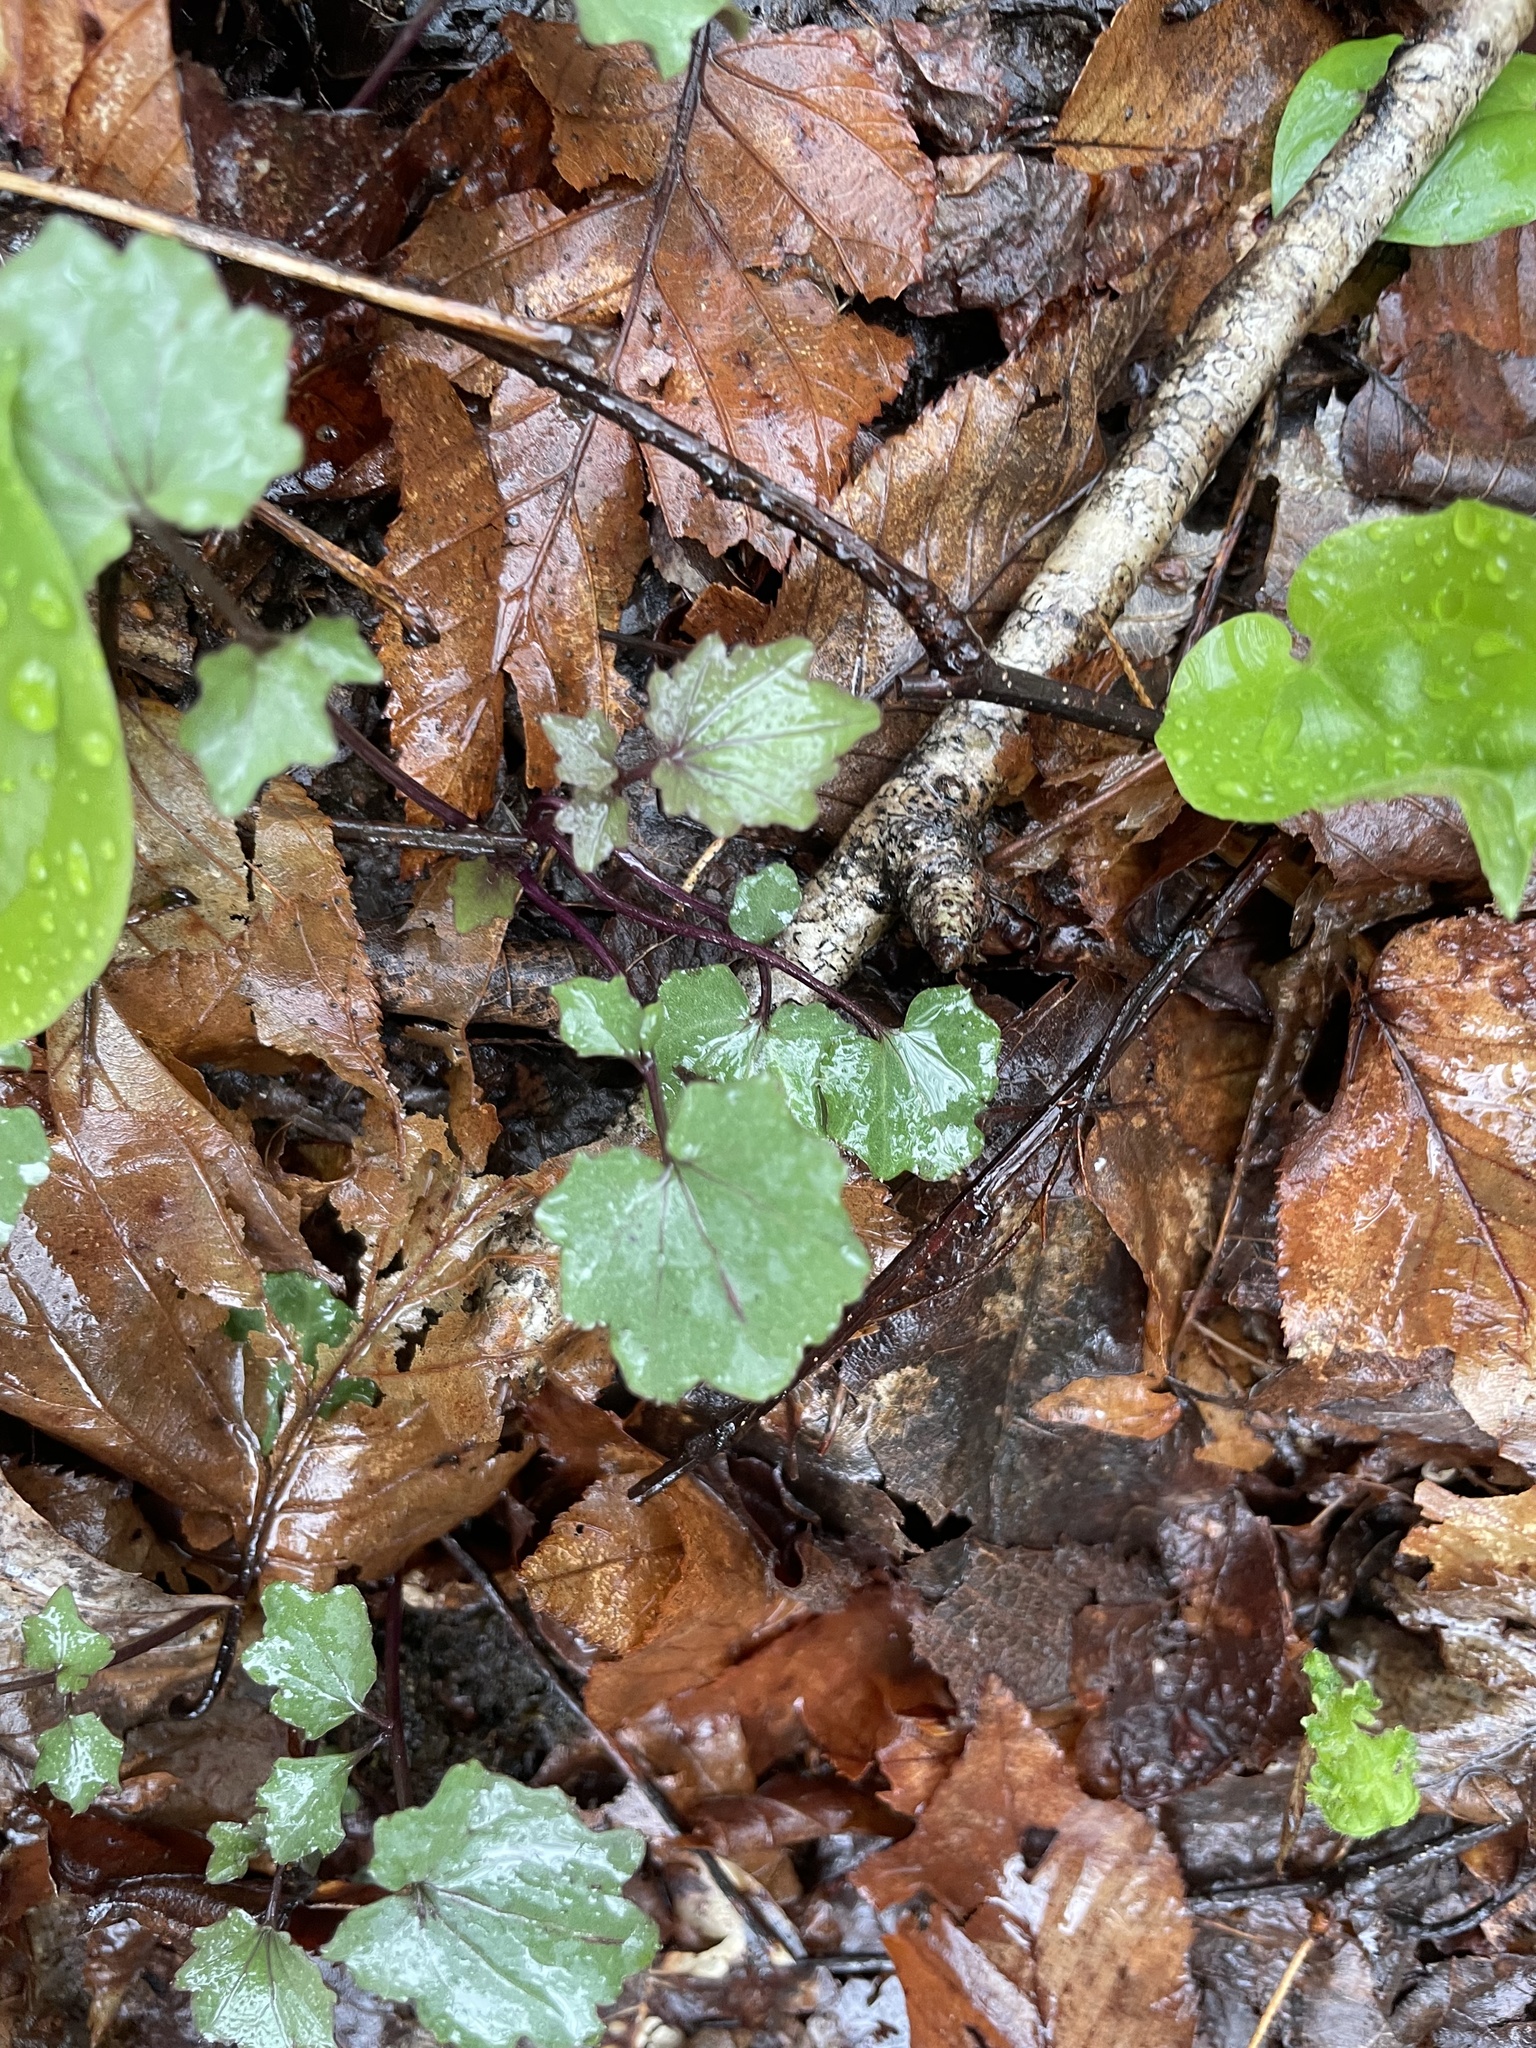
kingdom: Plantae
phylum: Tracheophyta
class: Magnoliopsida
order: Brassicales
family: Brassicaceae
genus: Cardamine
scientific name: Cardamine flagellifera
